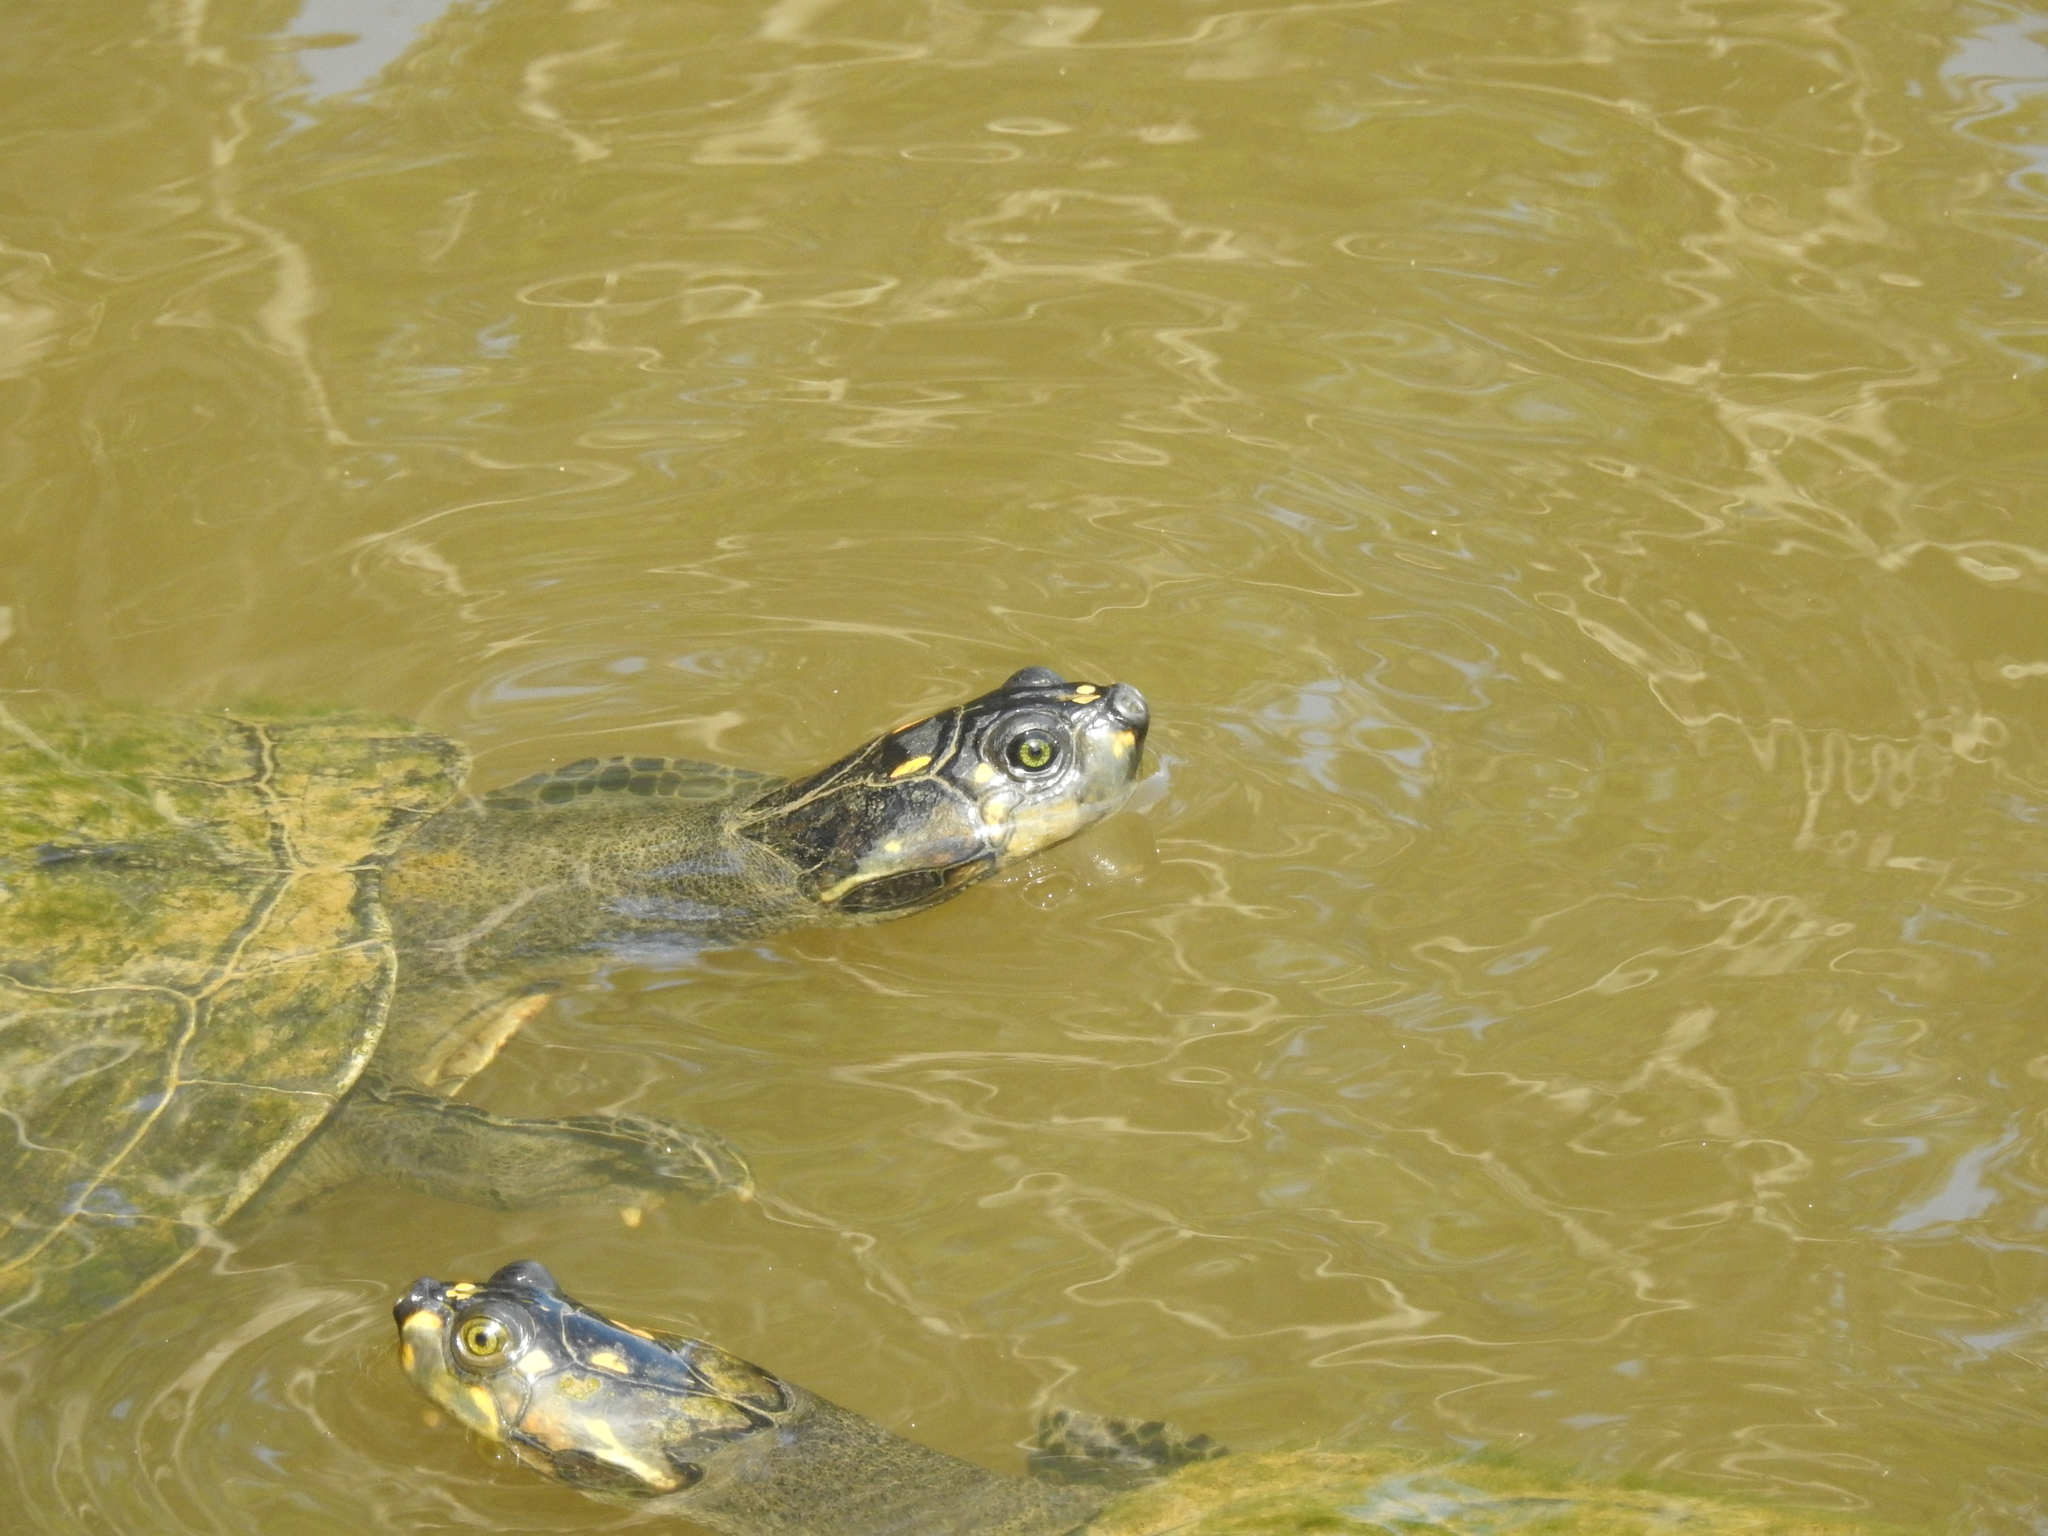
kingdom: Animalia
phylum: Chordata
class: Testudines
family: Podocnemididae
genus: Podocnemis
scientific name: Podocnemis unifilis
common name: Yellow-spotted amazon river turtle
